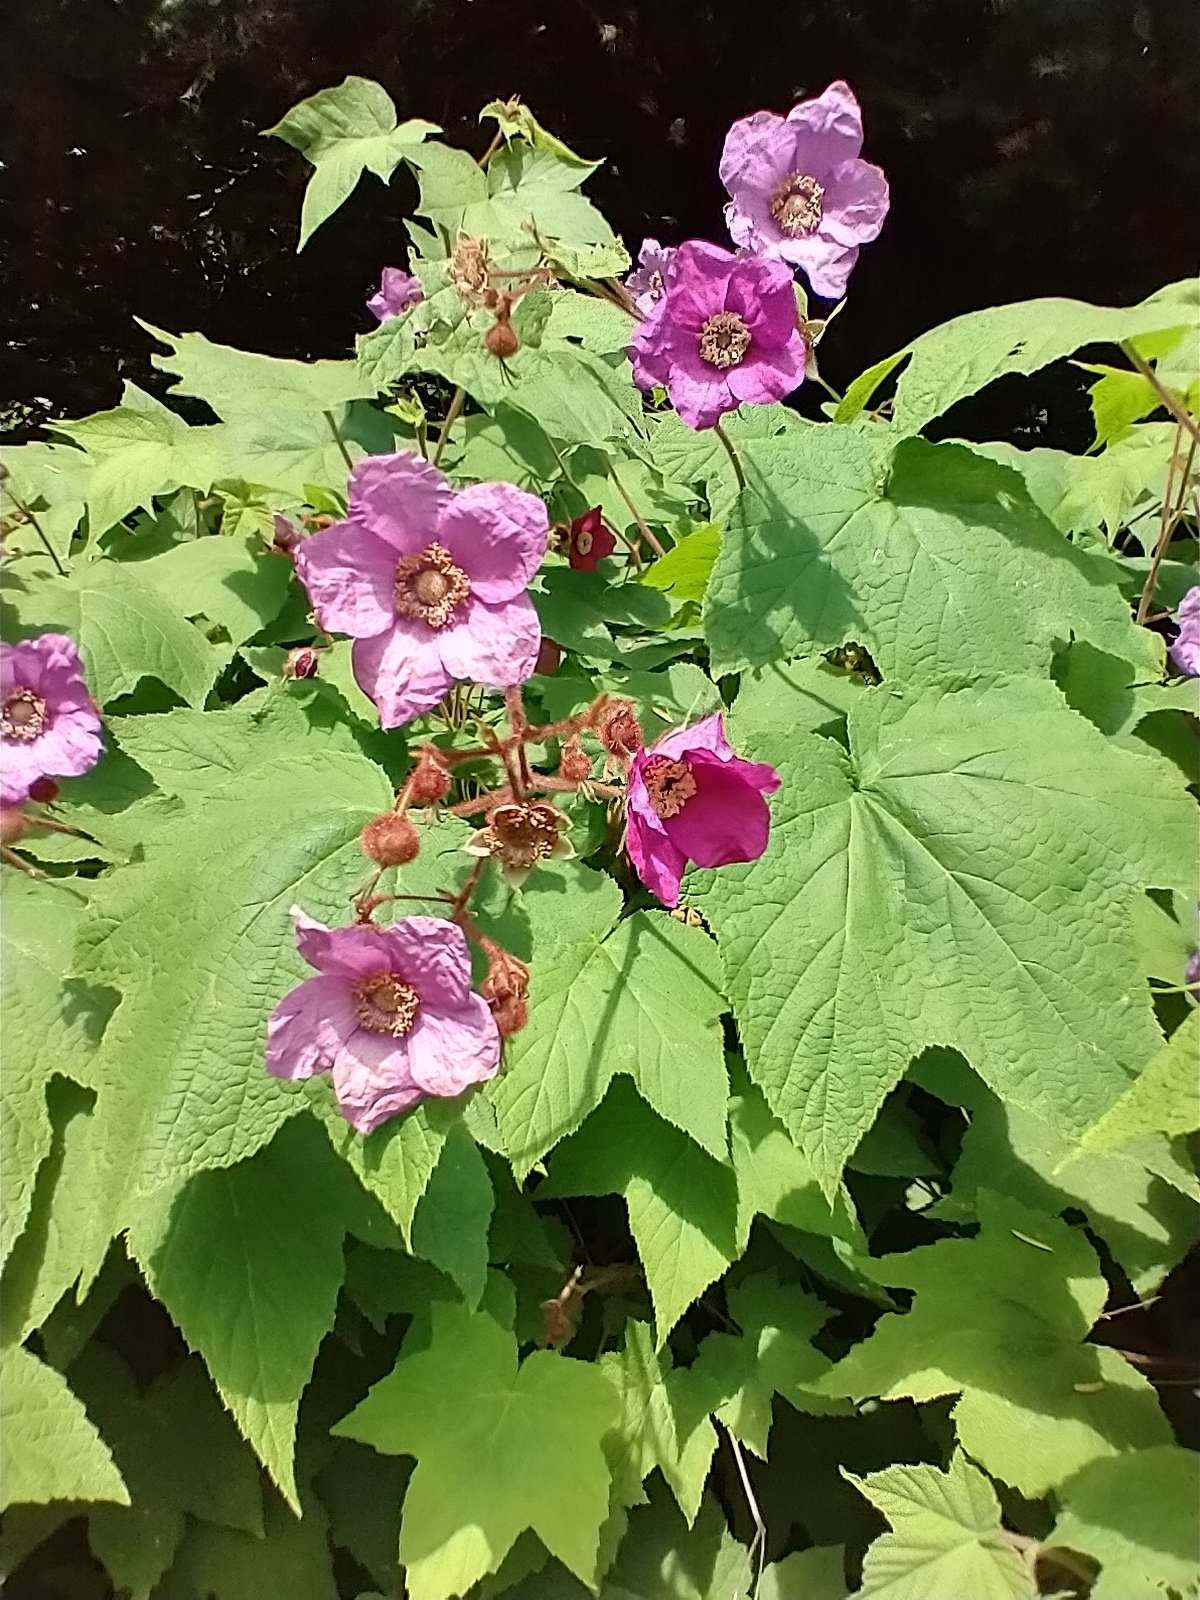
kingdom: Plantae
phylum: Tracheophyta
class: Magnoliopsida
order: Rosales
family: Rosaceae
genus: Rubus
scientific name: Rubus odoratus
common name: Purple-flowered raspberry
